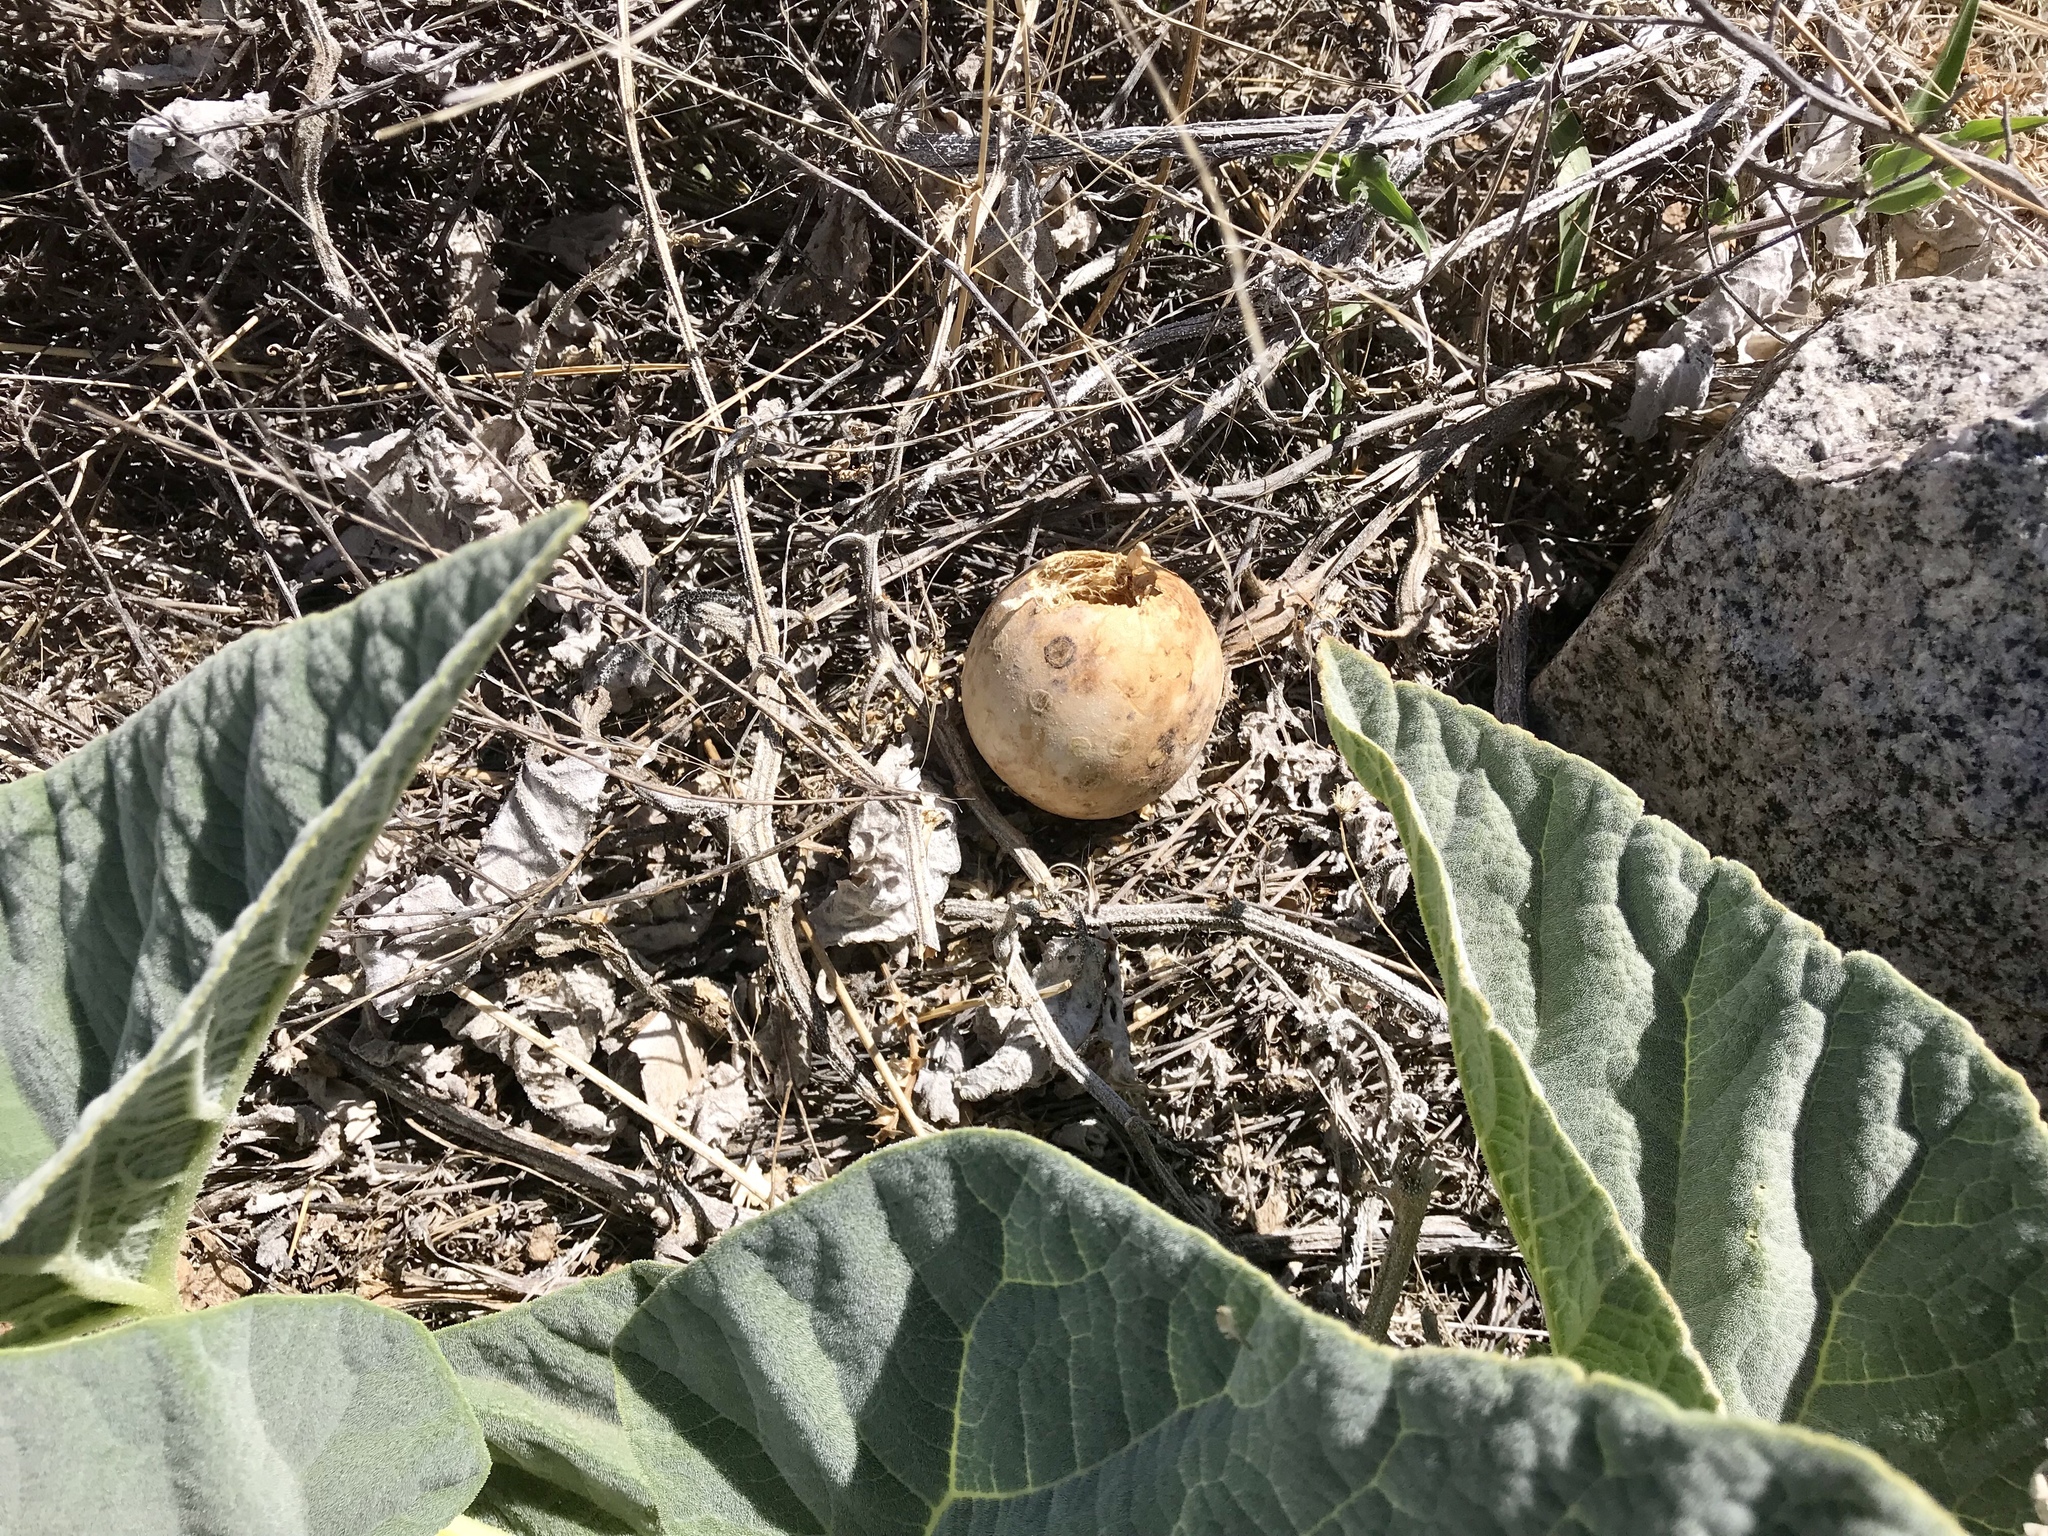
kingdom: Plantae
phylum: Tracheophyta
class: Magnoliopsida
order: Cucurbitales
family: Cucurbitaceae
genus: Cucurbita
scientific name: Cucurbita foetidissima
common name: Buffalo gourd
